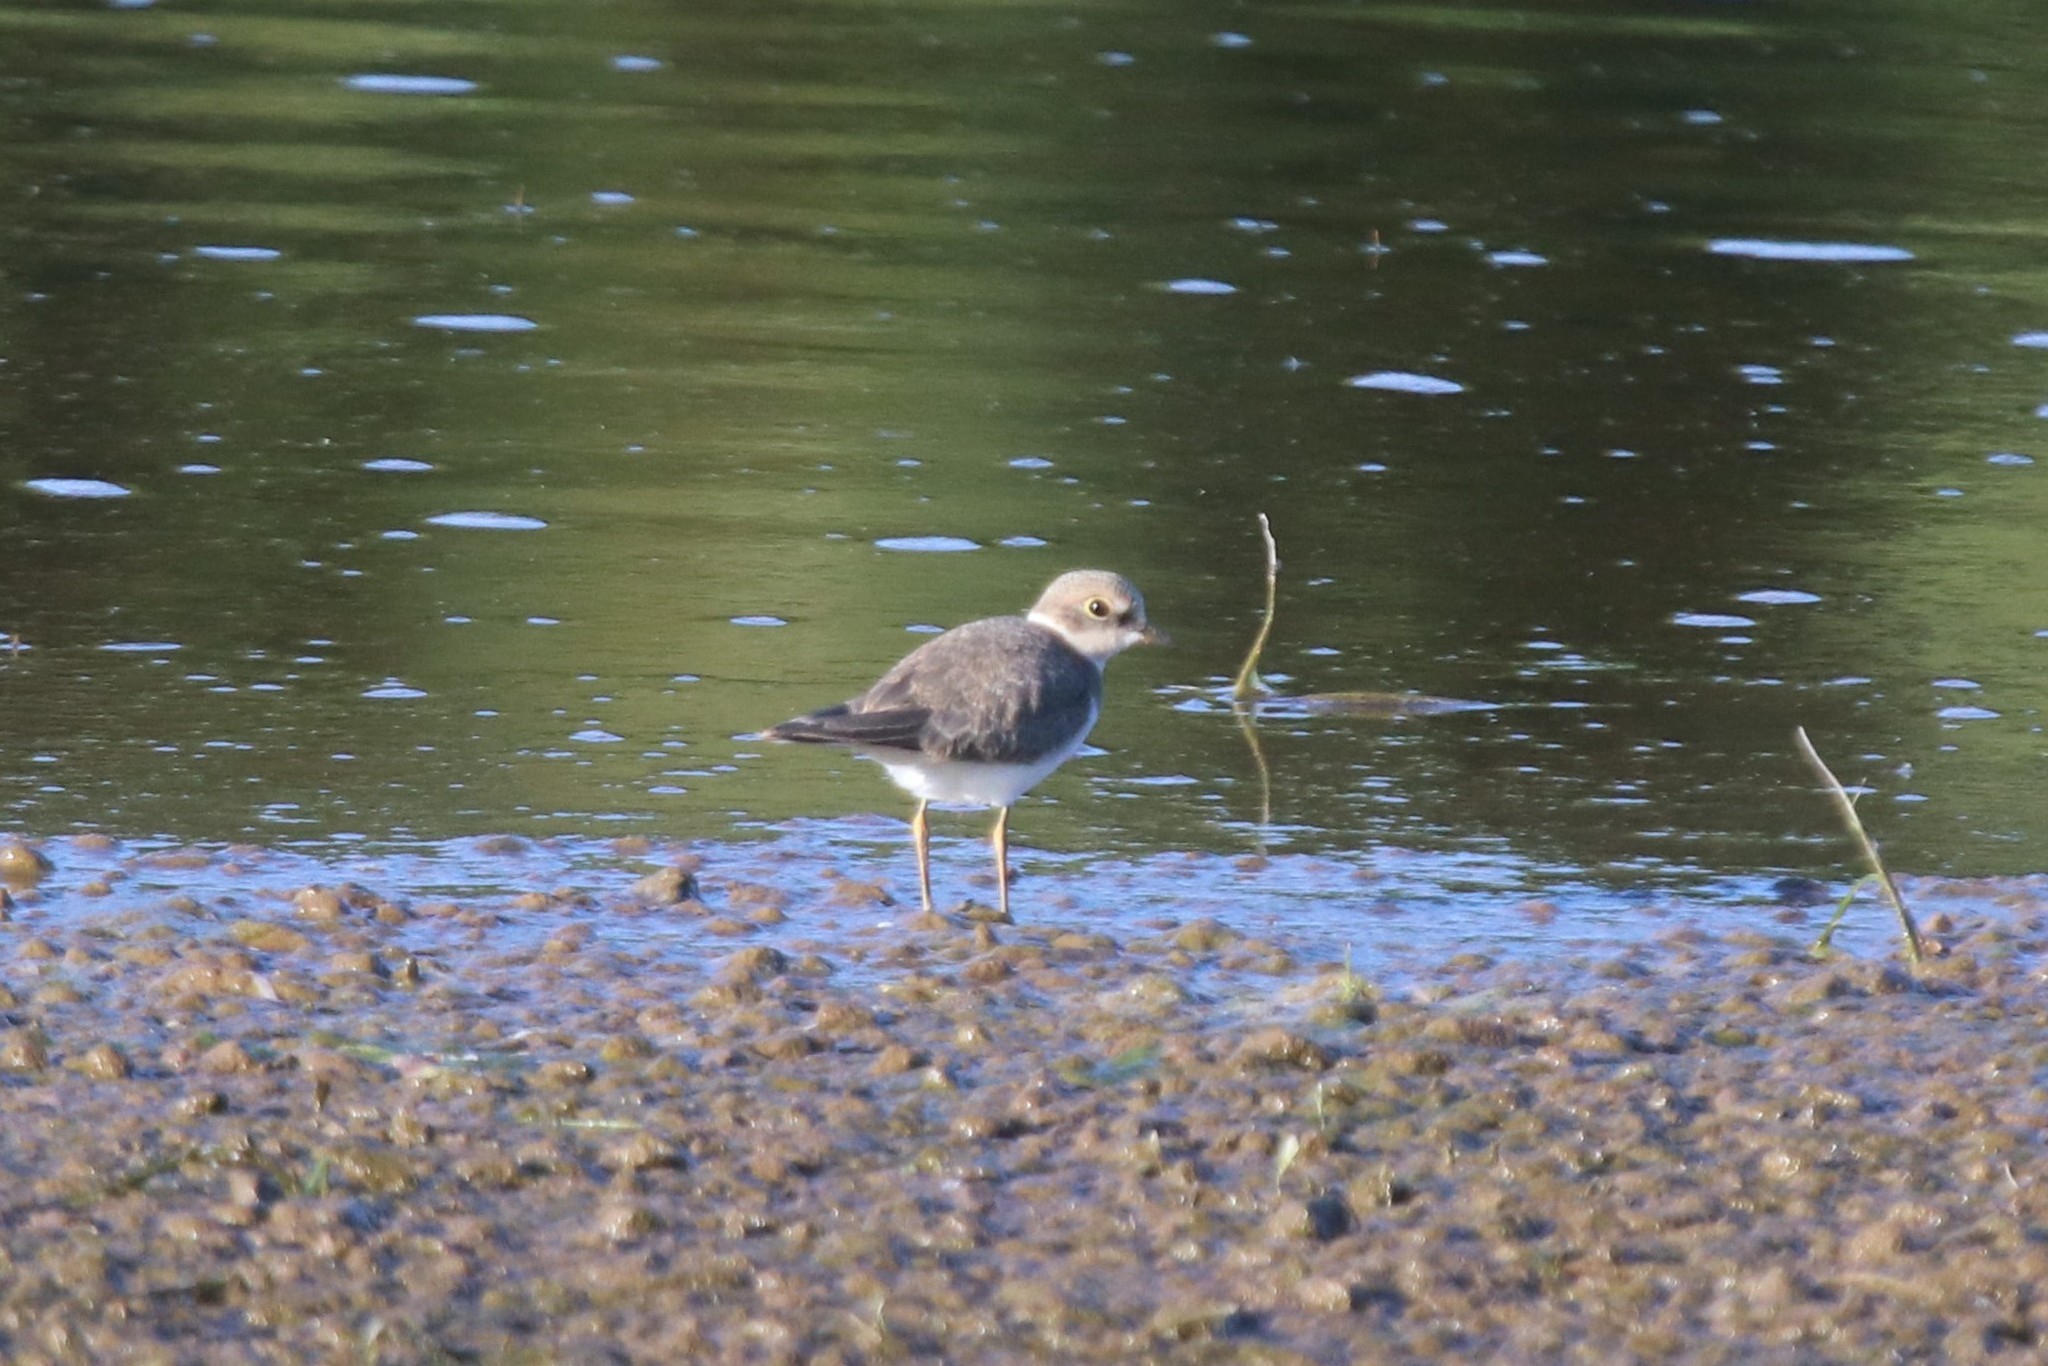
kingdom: Animalia
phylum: Chordata
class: Aves
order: Charadriiformes
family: Charadriidae
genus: Charadrius
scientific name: Charadrius dubius
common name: Little ringed plover
